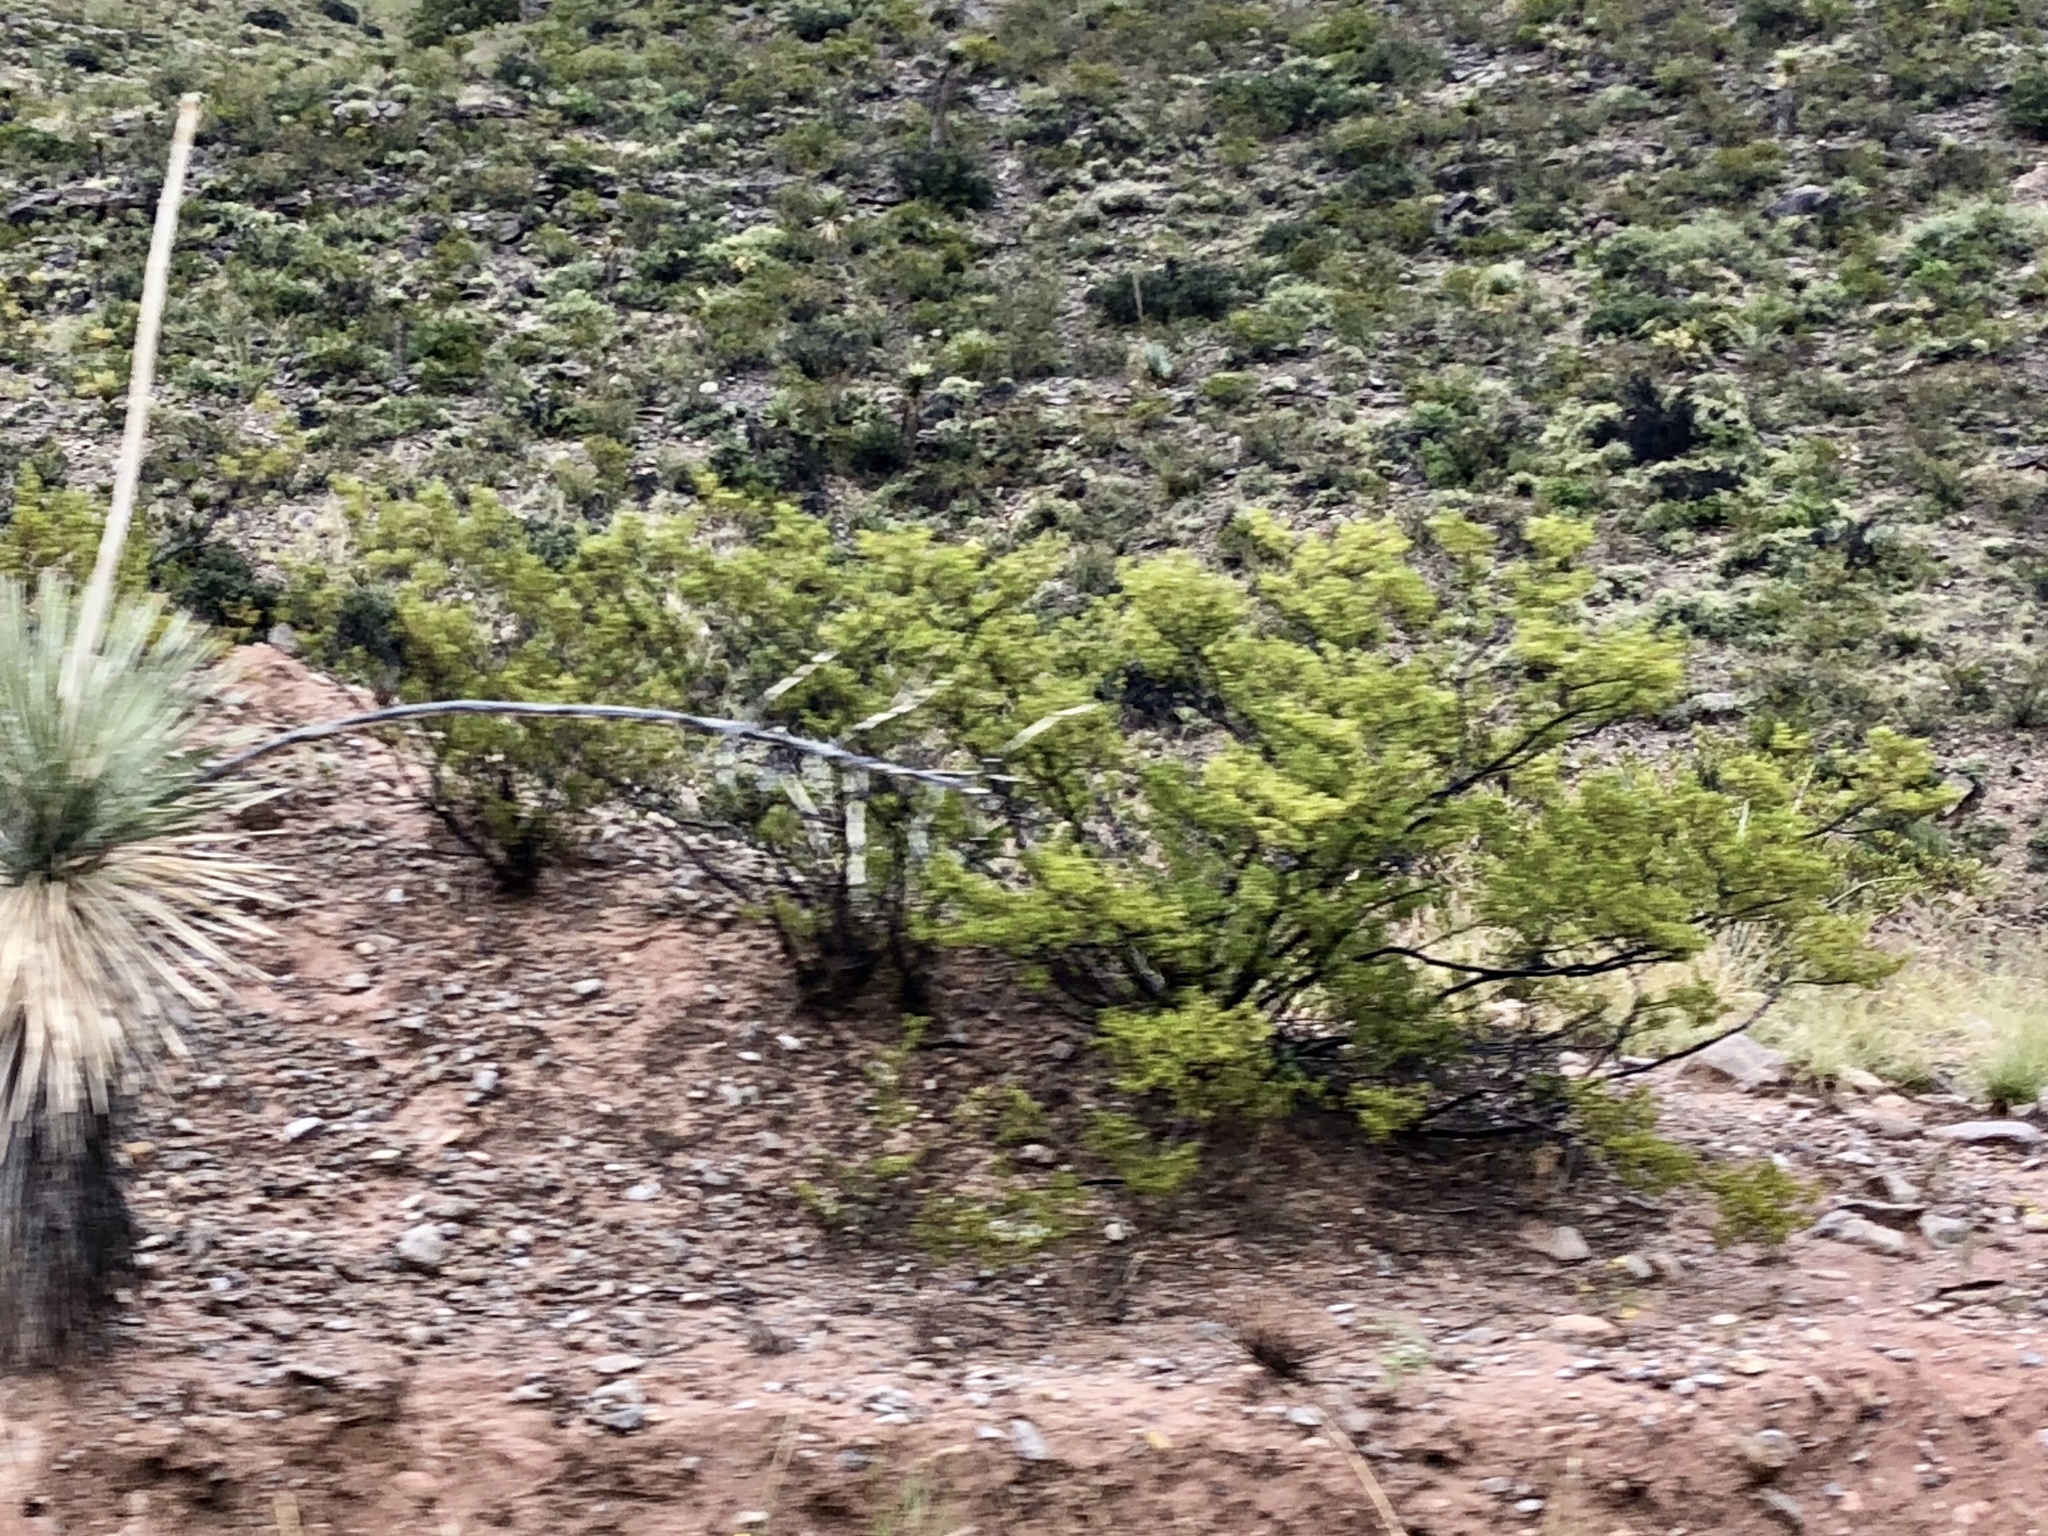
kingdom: Plantae
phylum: Tracheophyta
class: Magnoliopsida
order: Zygophyllales
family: Zygophyllaceae
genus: Larrea
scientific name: Larrea tridentata
